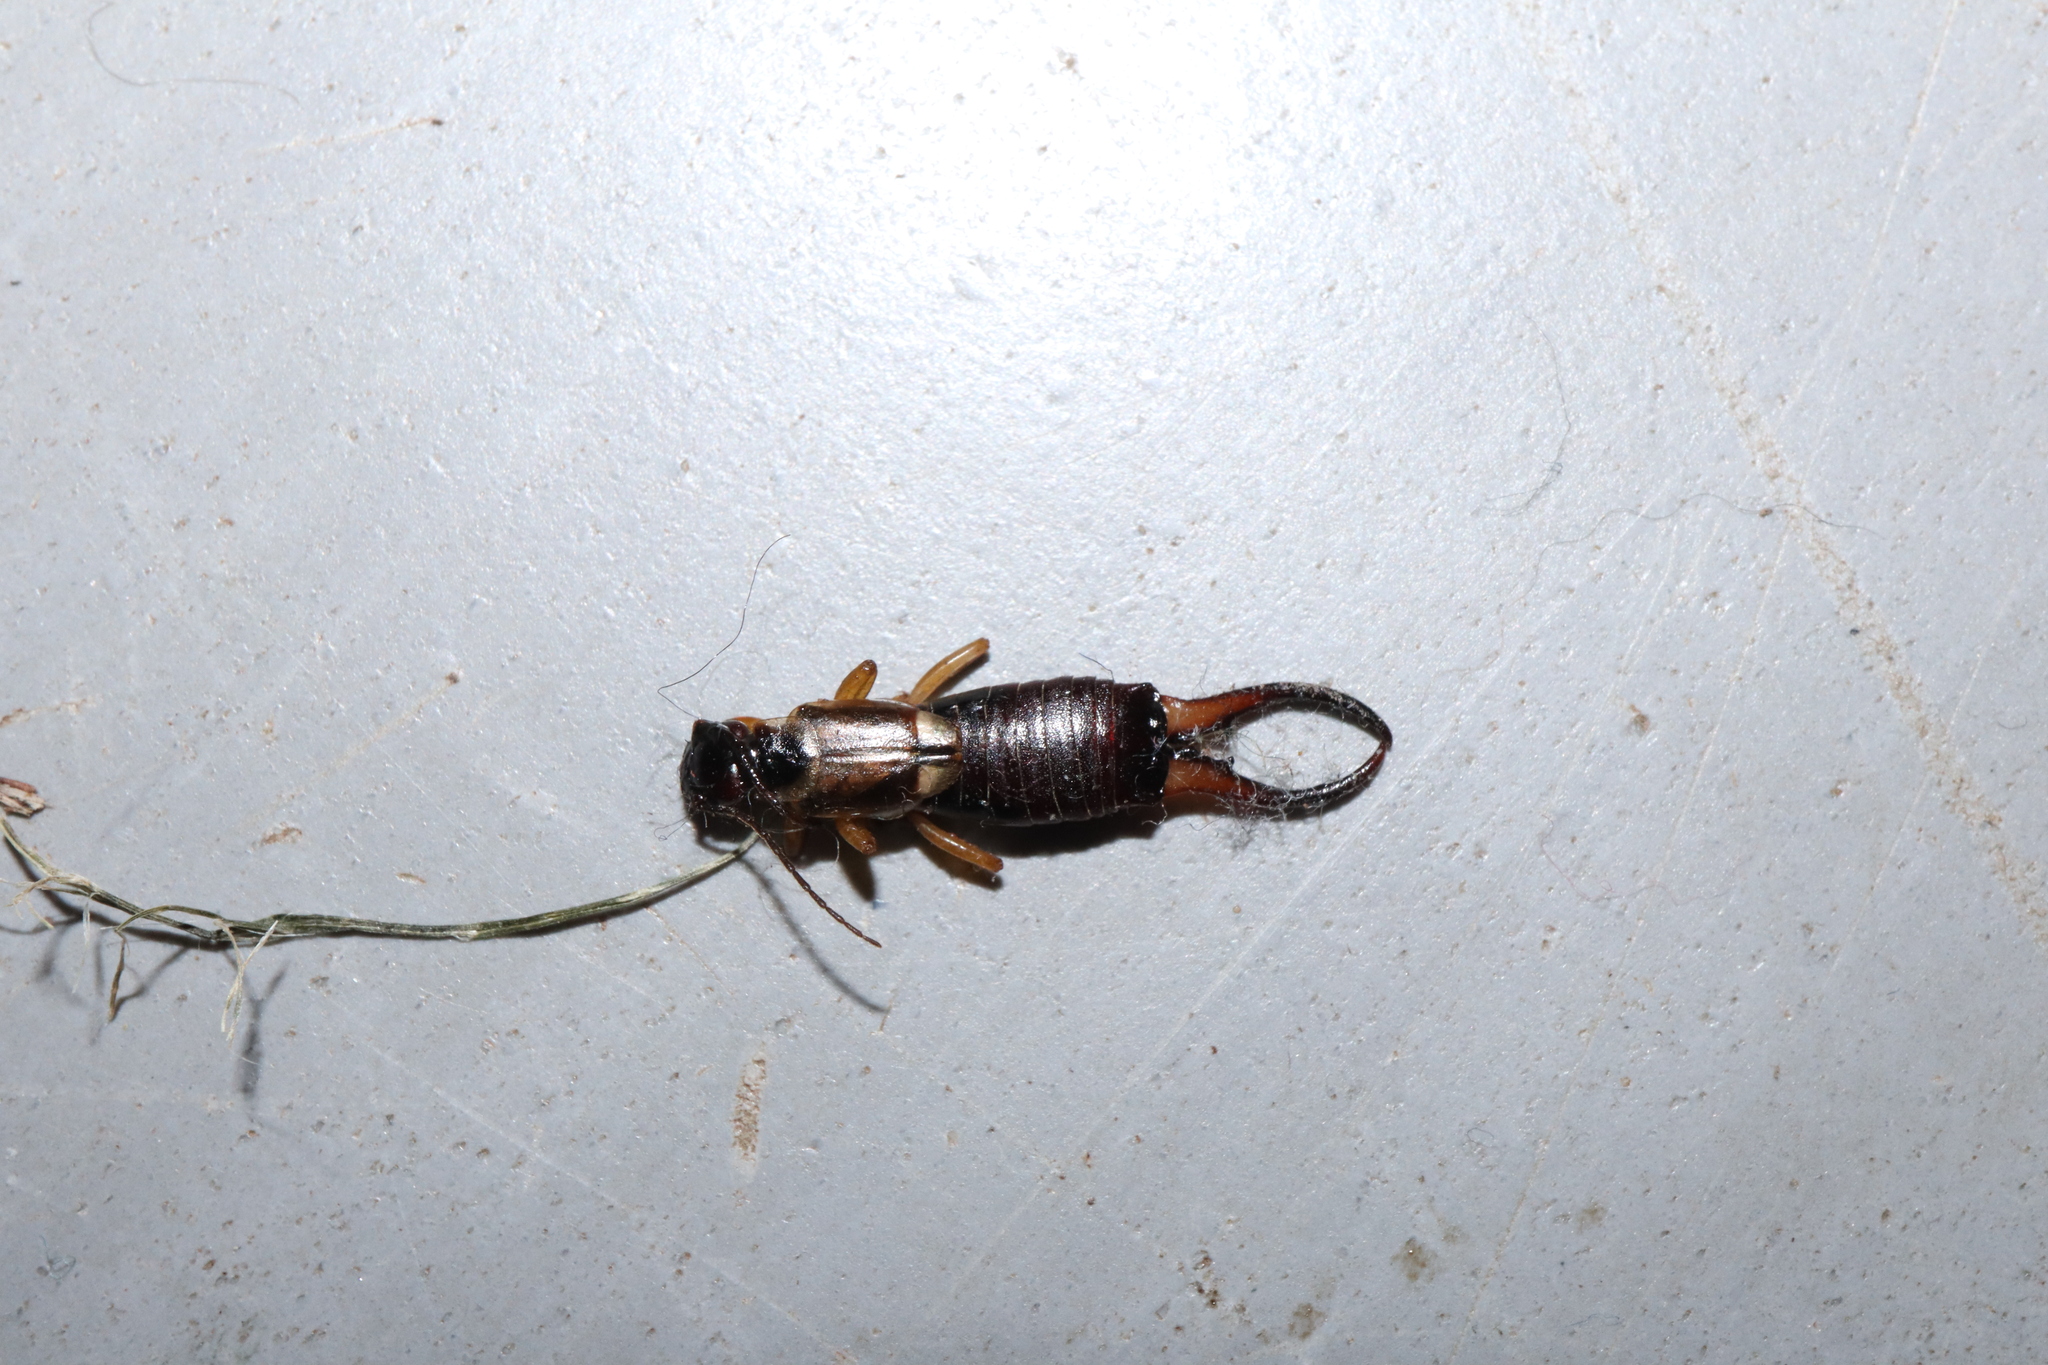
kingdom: Animalia
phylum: Arthropoda
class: Insecta
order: Dermaptera
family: Forficulidae
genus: Forficula
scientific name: Forficula dentata
